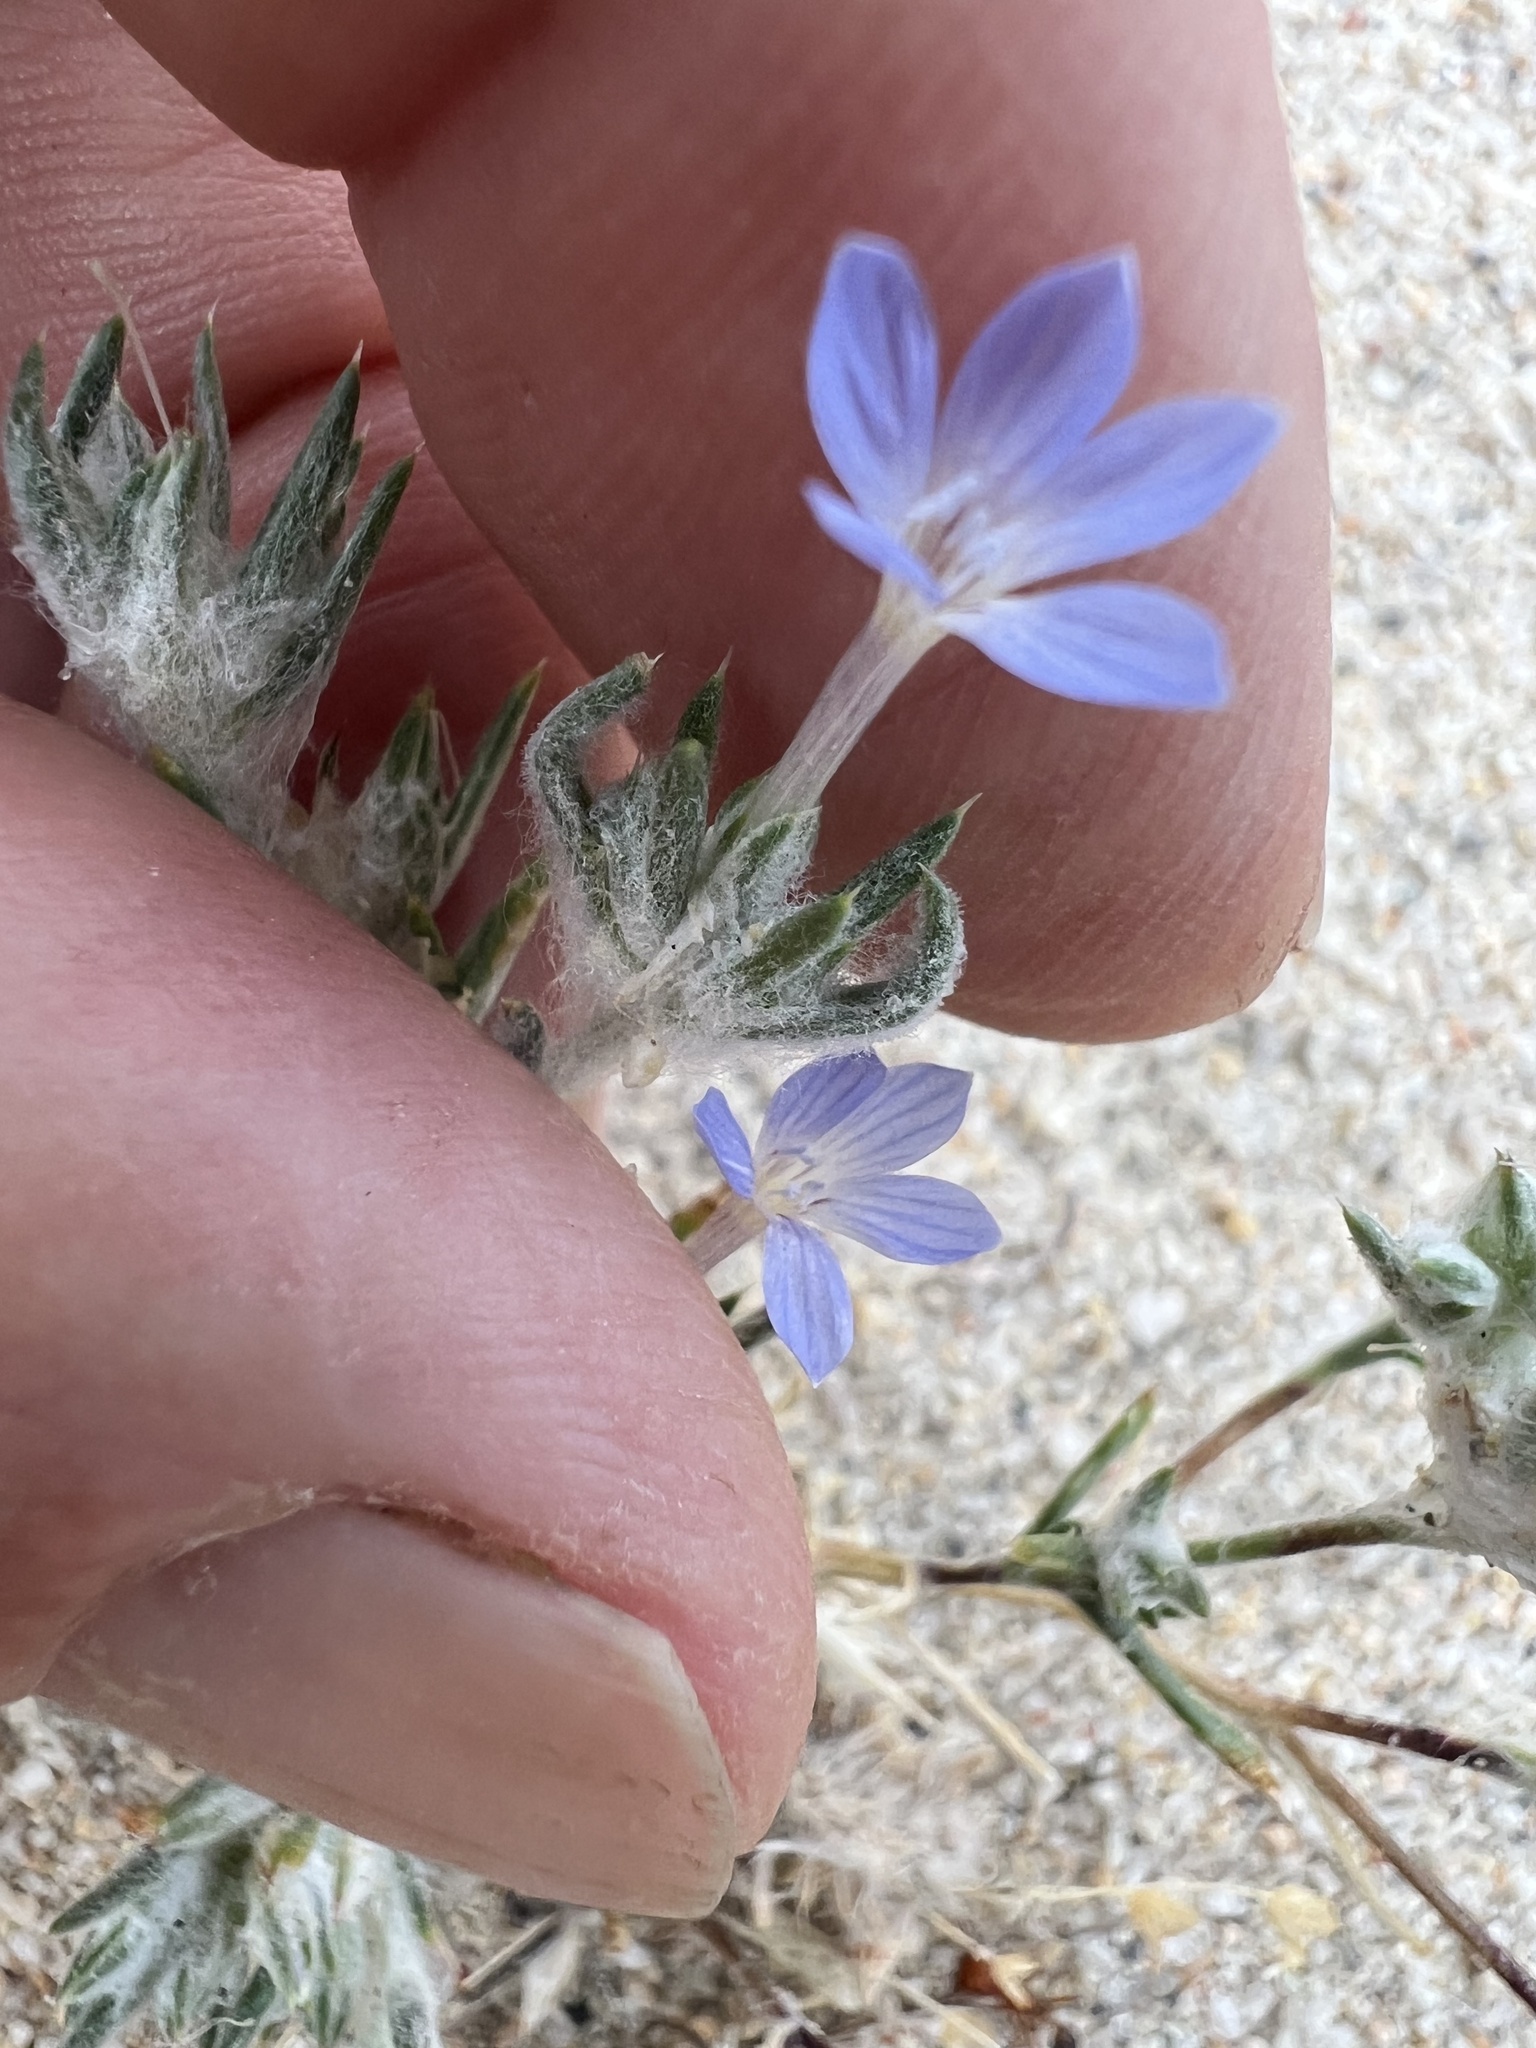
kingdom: Plantae
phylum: Tracheophyta
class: Magnoliopsida
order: Ericales
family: Polemoniaceae
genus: Eriastrum
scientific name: Eriastrum wilcoxii
